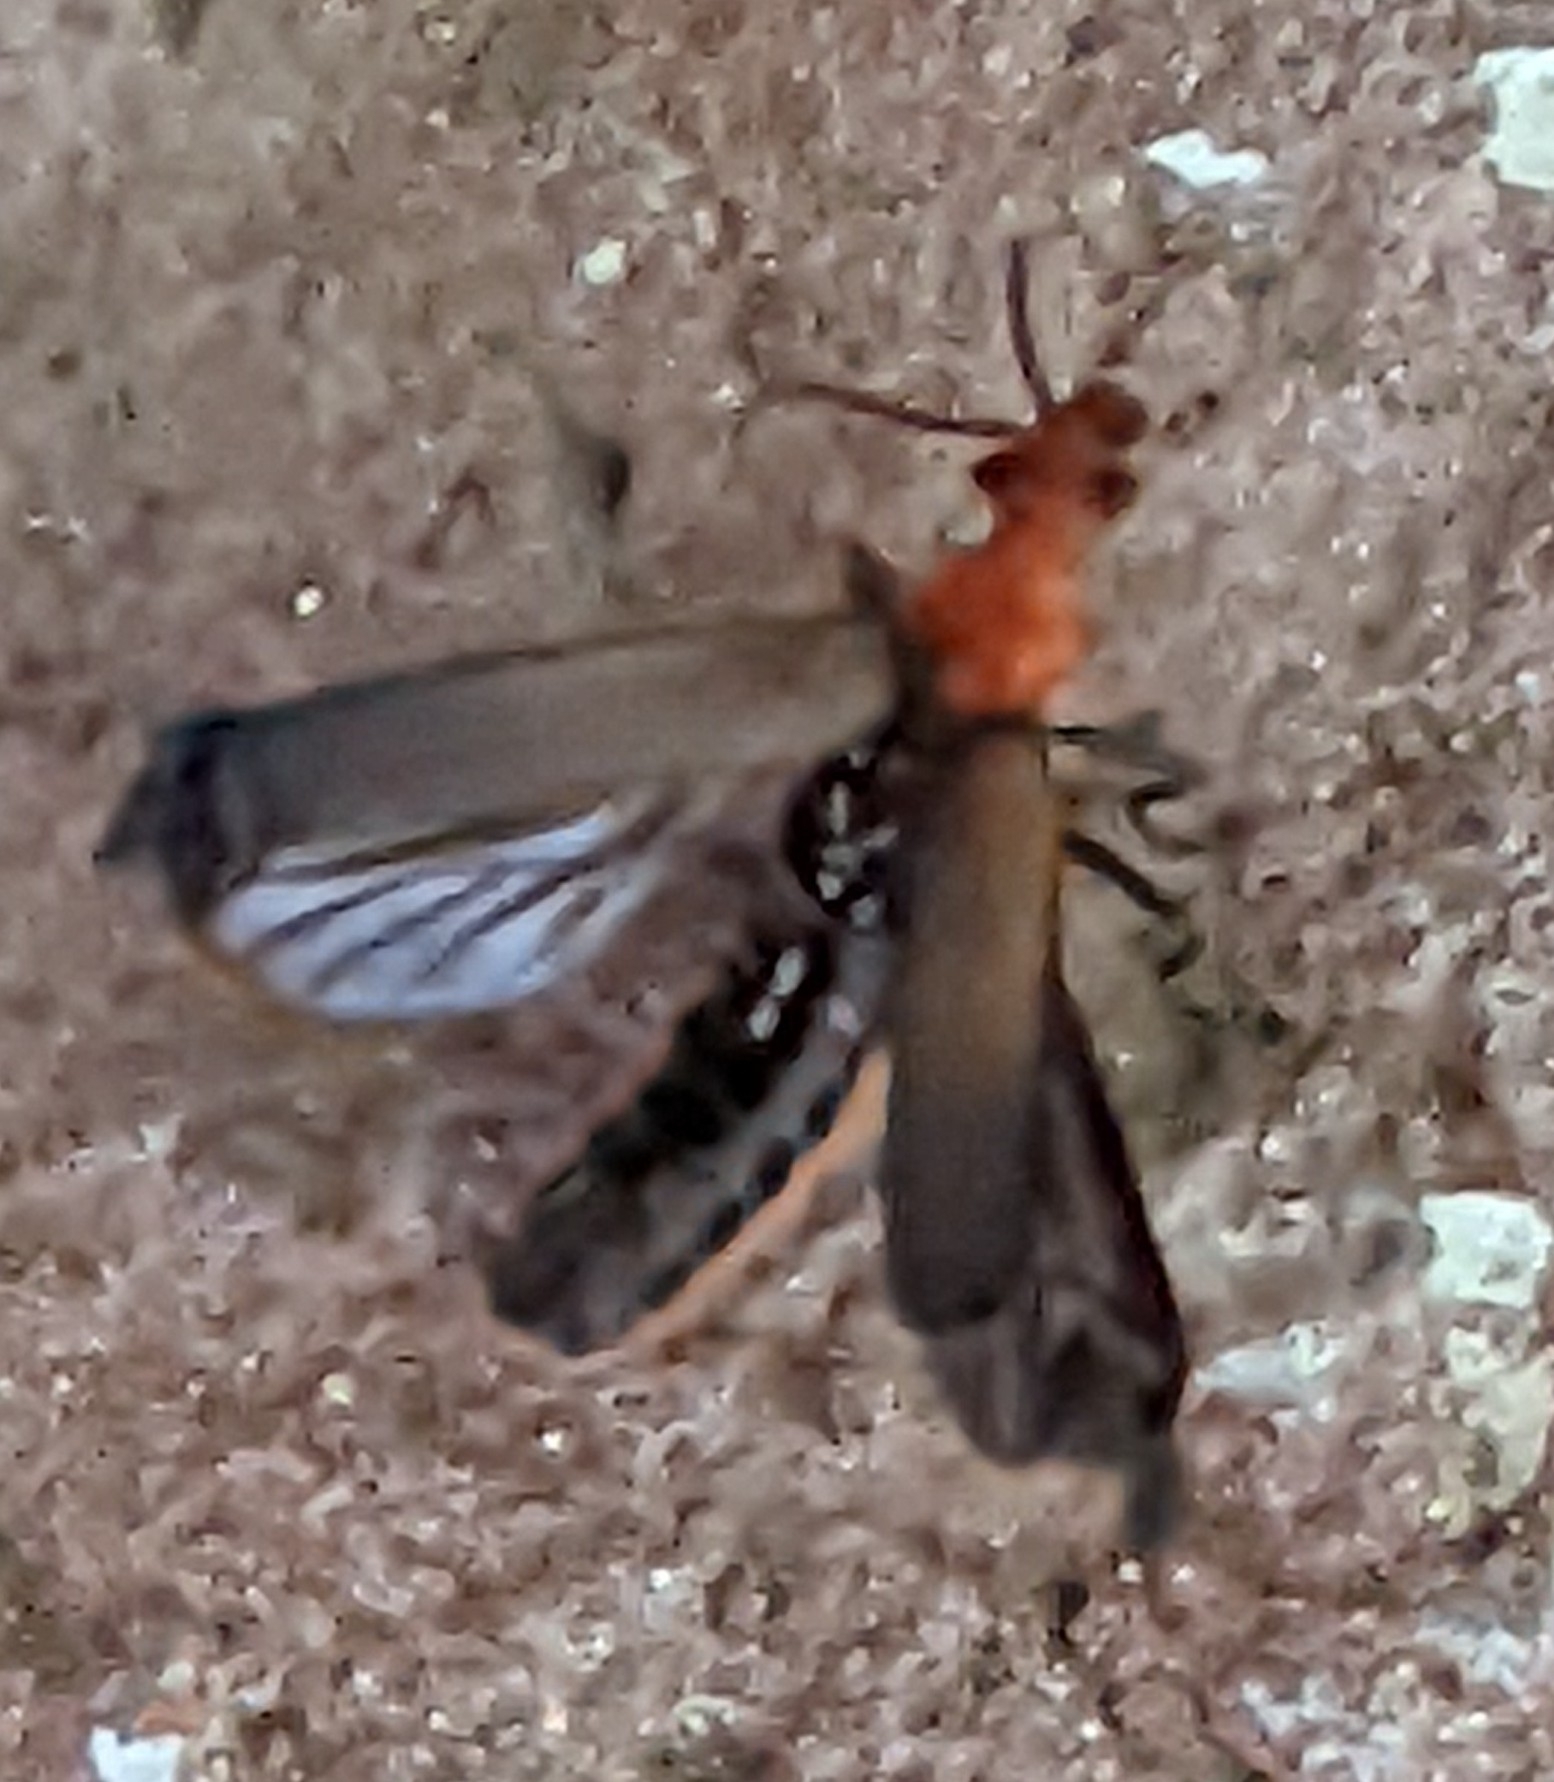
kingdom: Animalia
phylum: Arthropoda
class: Insecta
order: Coleoptera
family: Cantharidae
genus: Podabrus
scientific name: Podabrus pruinosus
